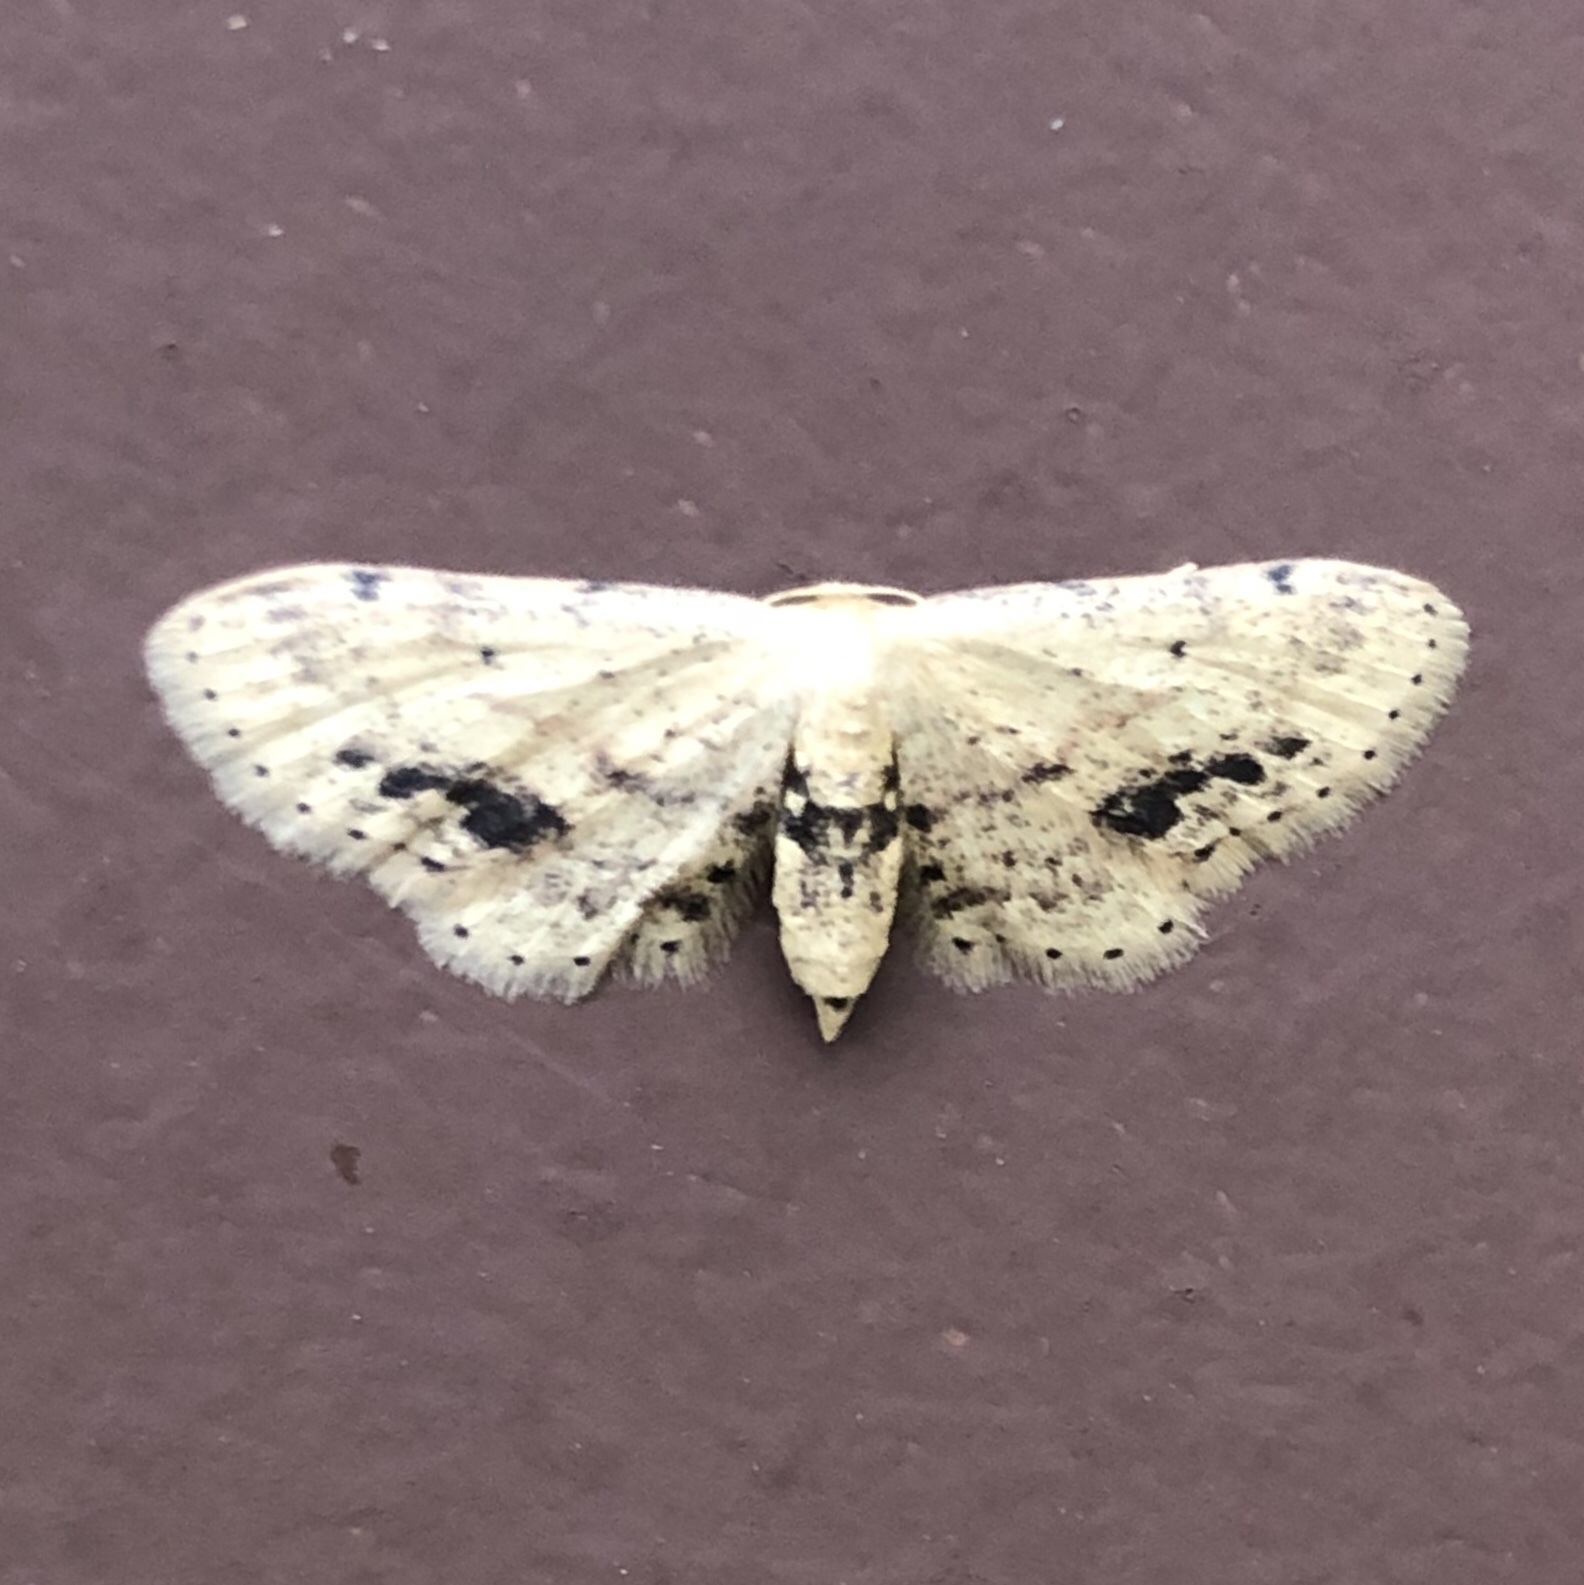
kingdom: Animalia
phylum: Arthropoda
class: Insecta
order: Lepidoptera
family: Geometridae
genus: Idaea
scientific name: Idaea dimidiata
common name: Single-dotted wave
